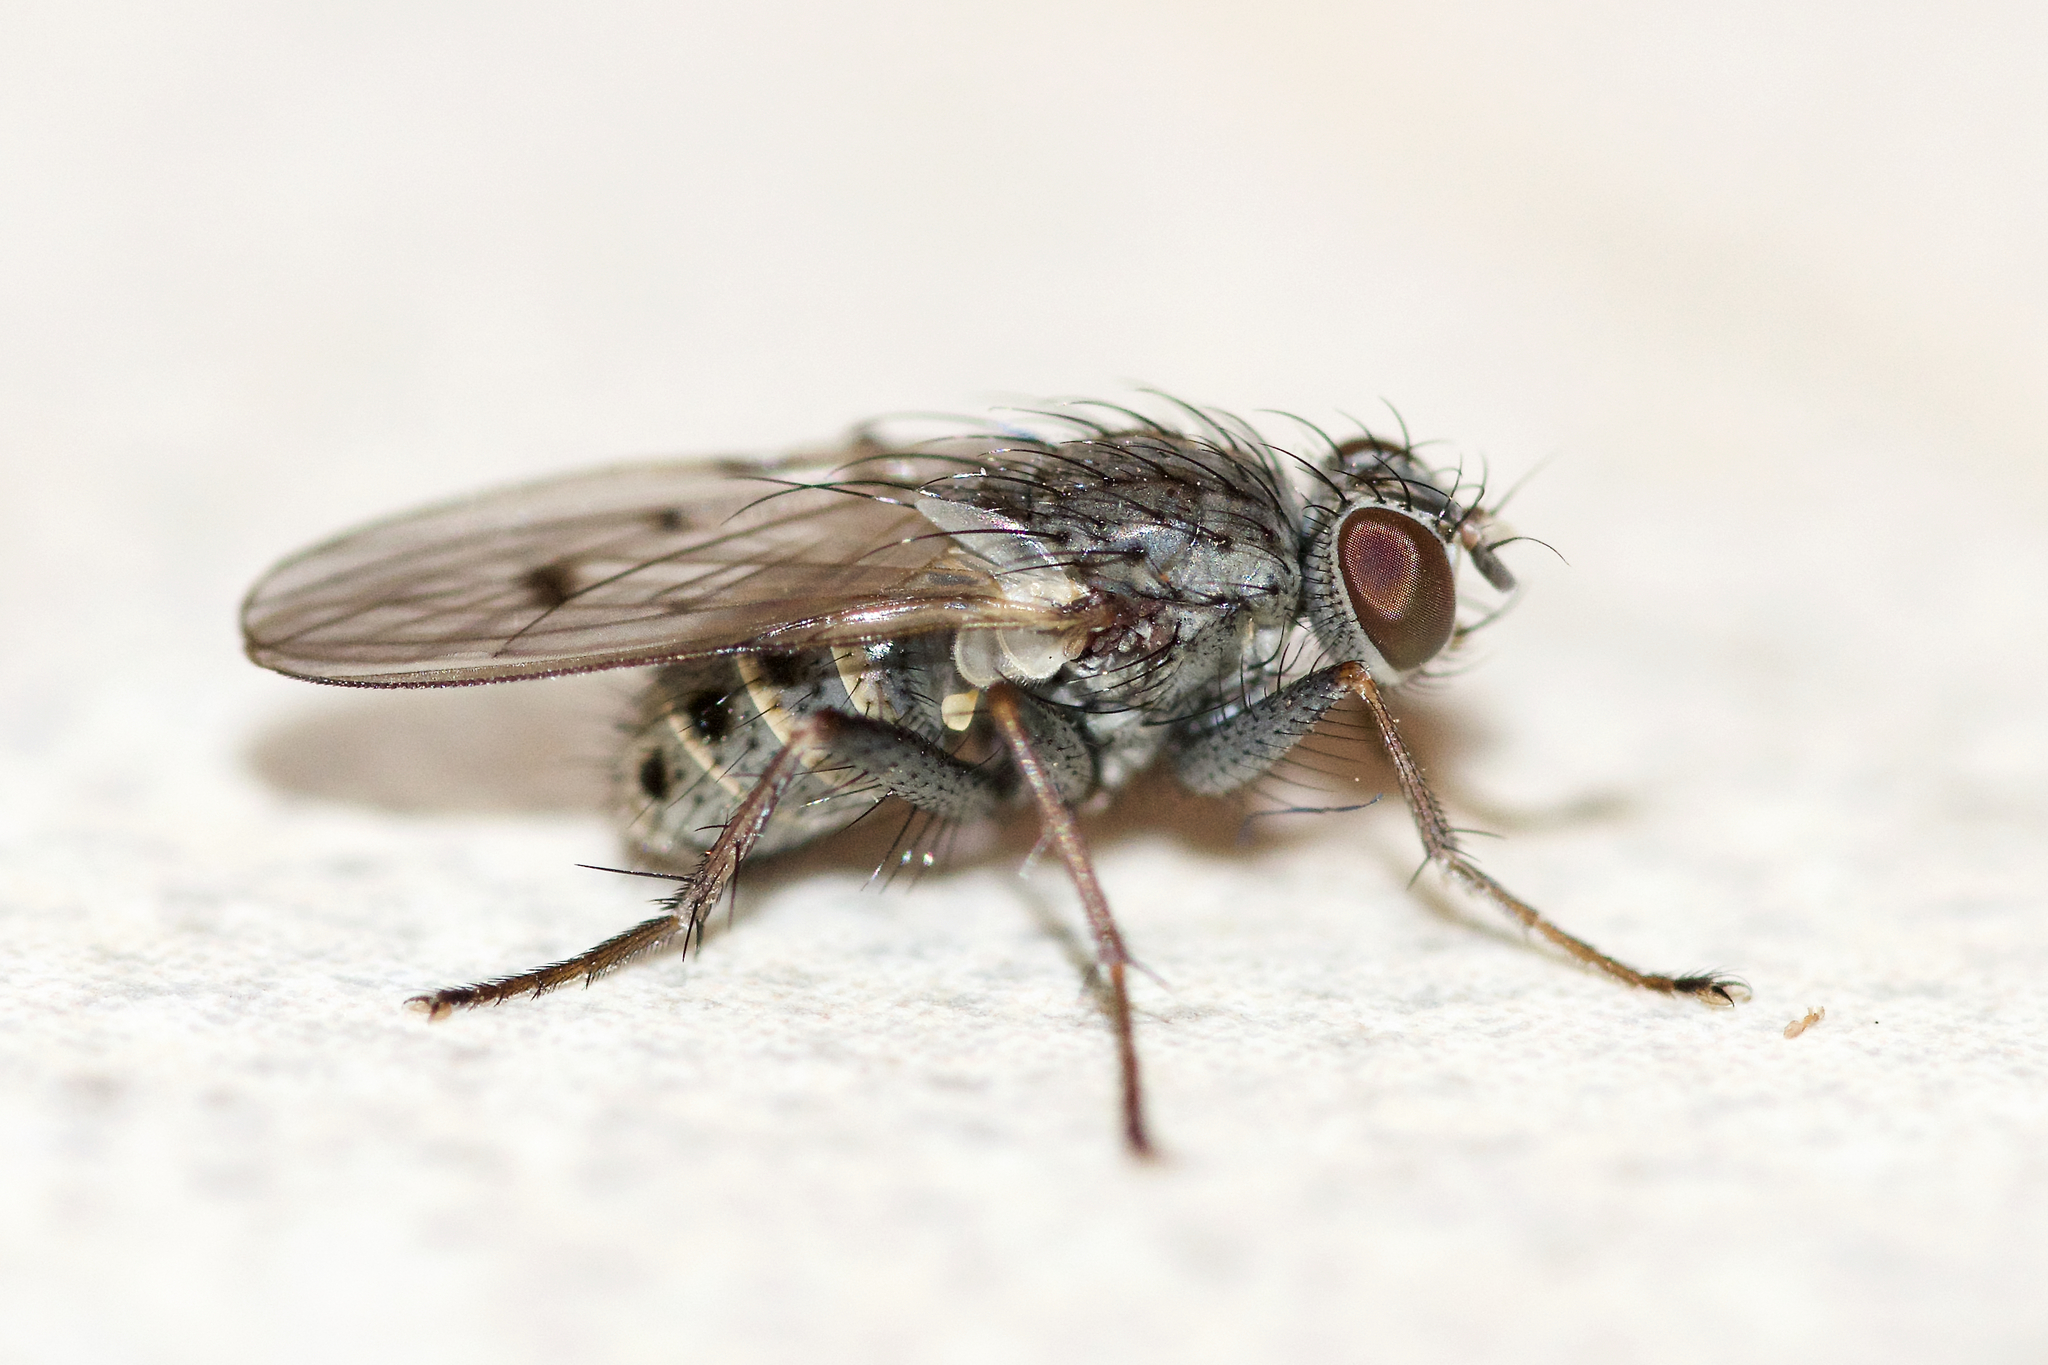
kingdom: Animalia
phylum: Arthropoda
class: Insecta
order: Diptera
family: Muscidae
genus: Caricea
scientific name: Caricea alma
